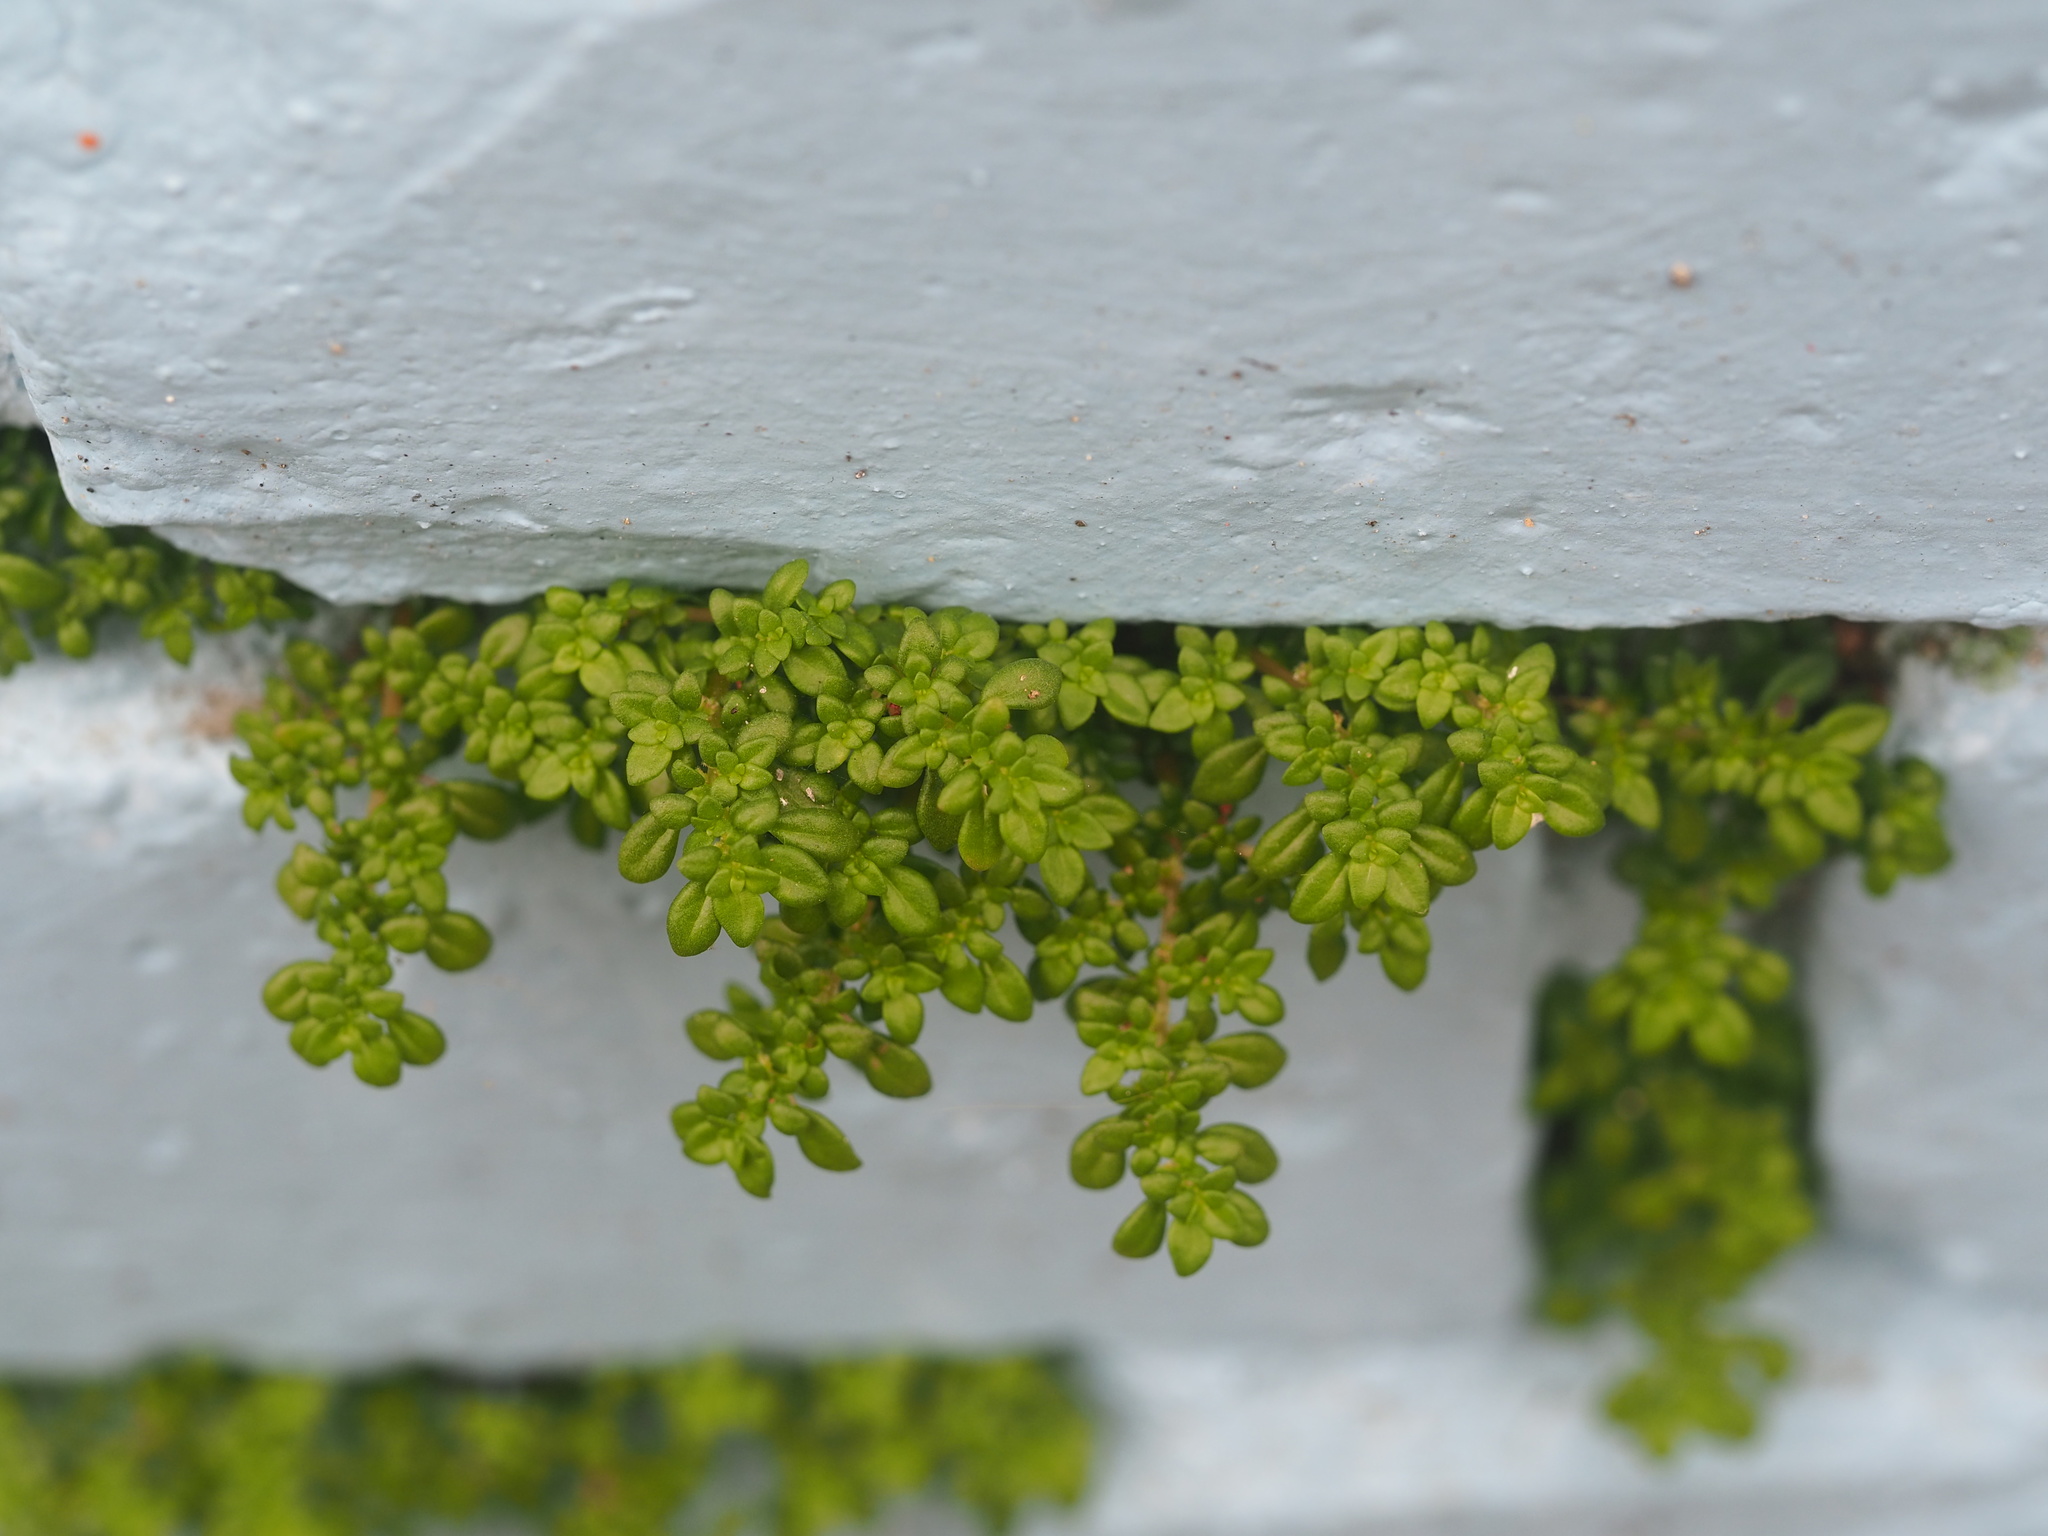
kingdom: Plantae
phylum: Tracheophyta
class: Magnoliopsida
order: Rosales
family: Urticaceae
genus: Pilea
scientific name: Pilea microphylla
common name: Artillery-plant
